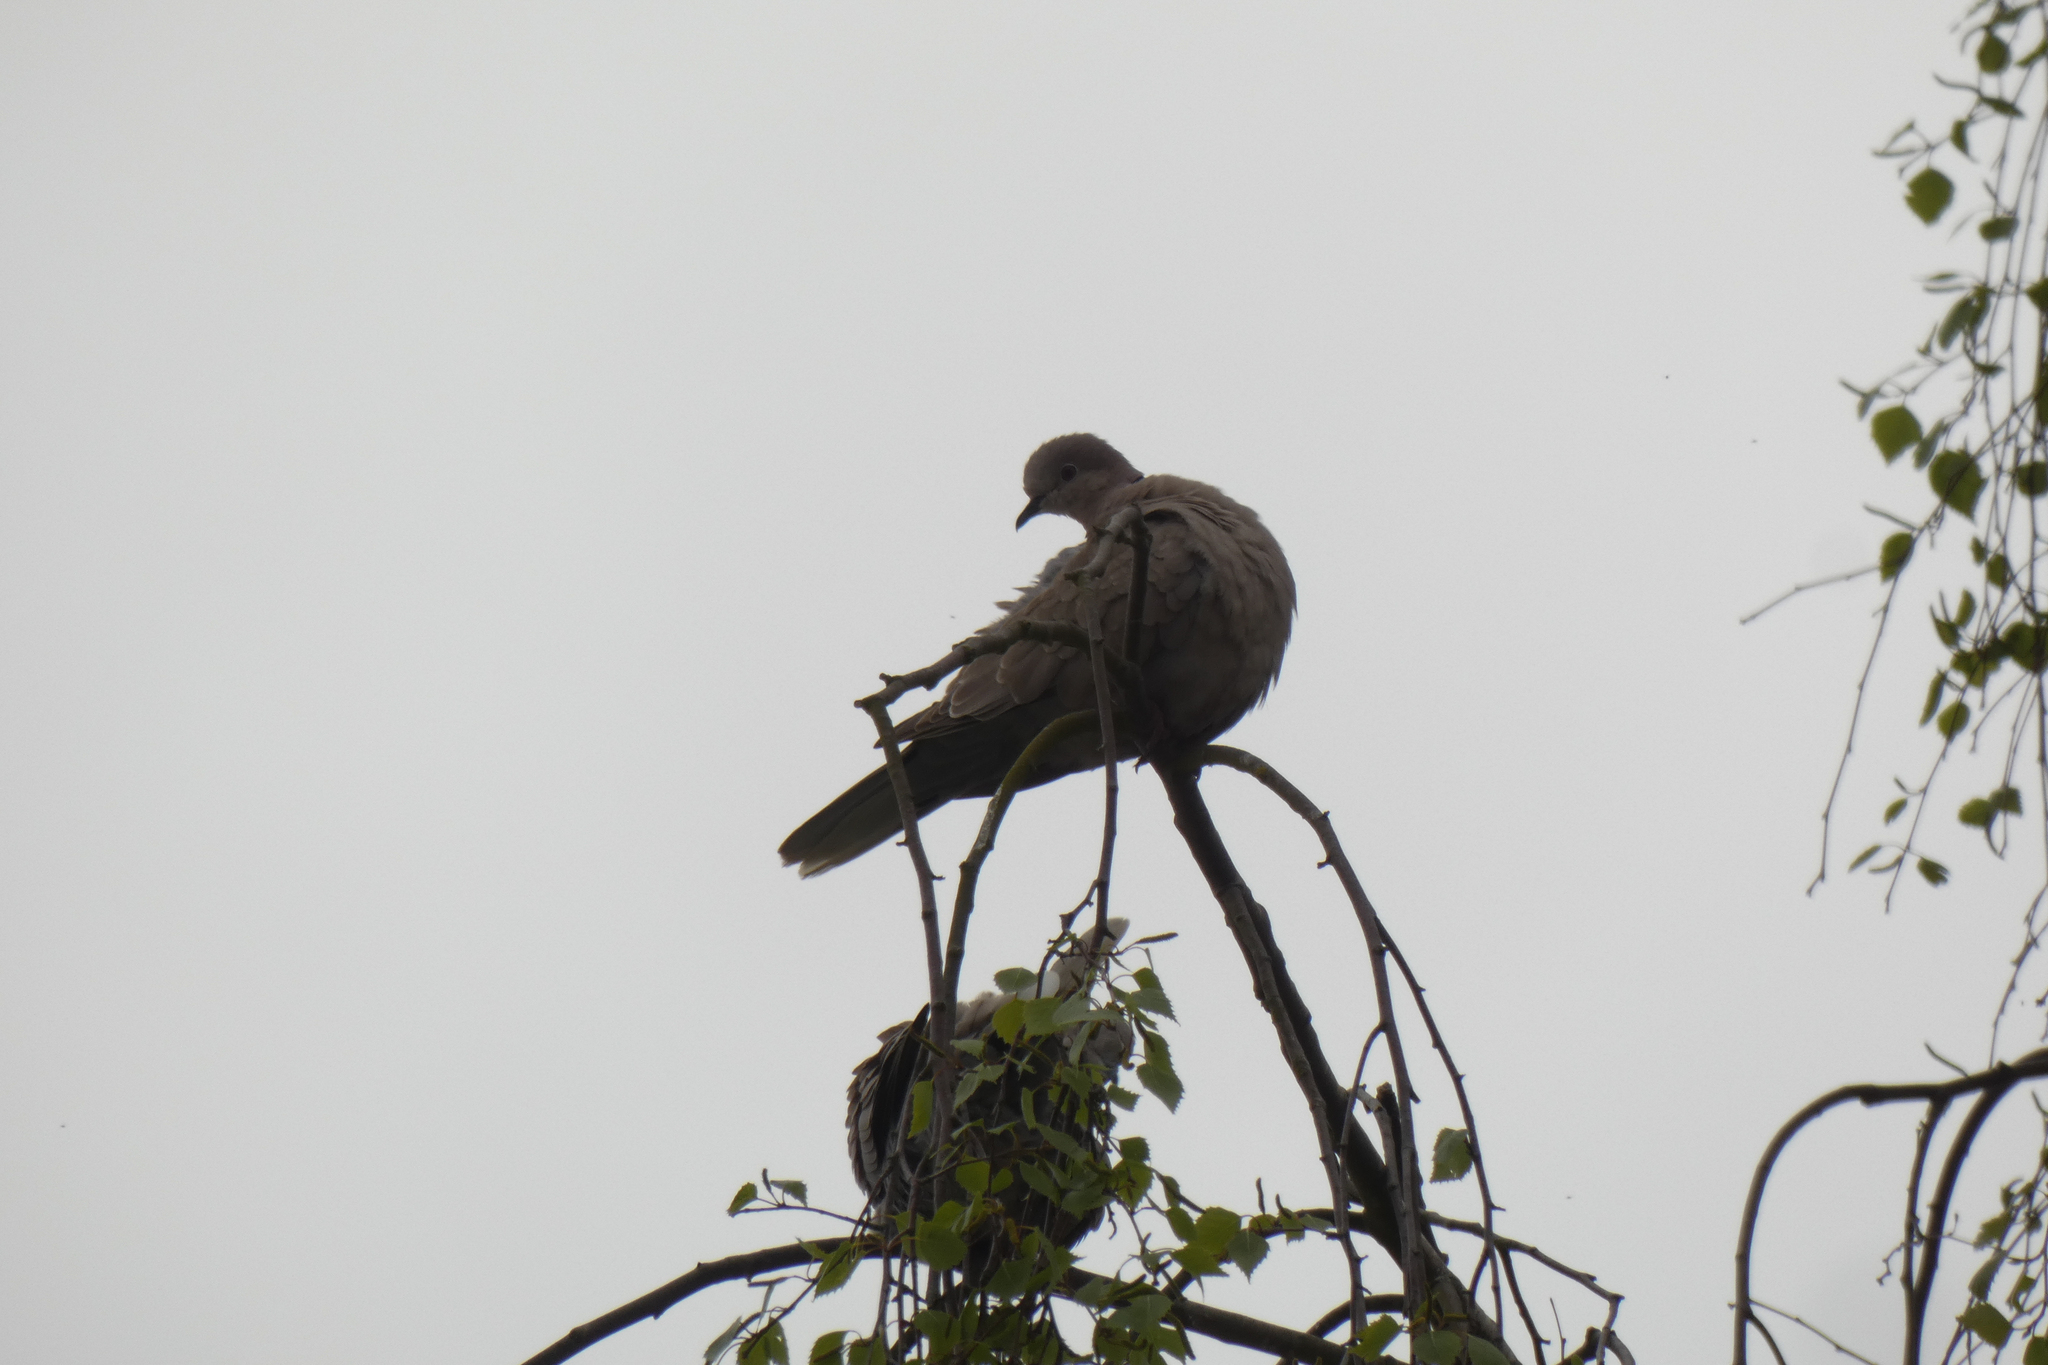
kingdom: Animalia
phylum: Chordata
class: Aves
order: Columbiformes
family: Columbidae
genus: Streptopelia
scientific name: Streptopelia decaocto
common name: Eurasian collared dove
